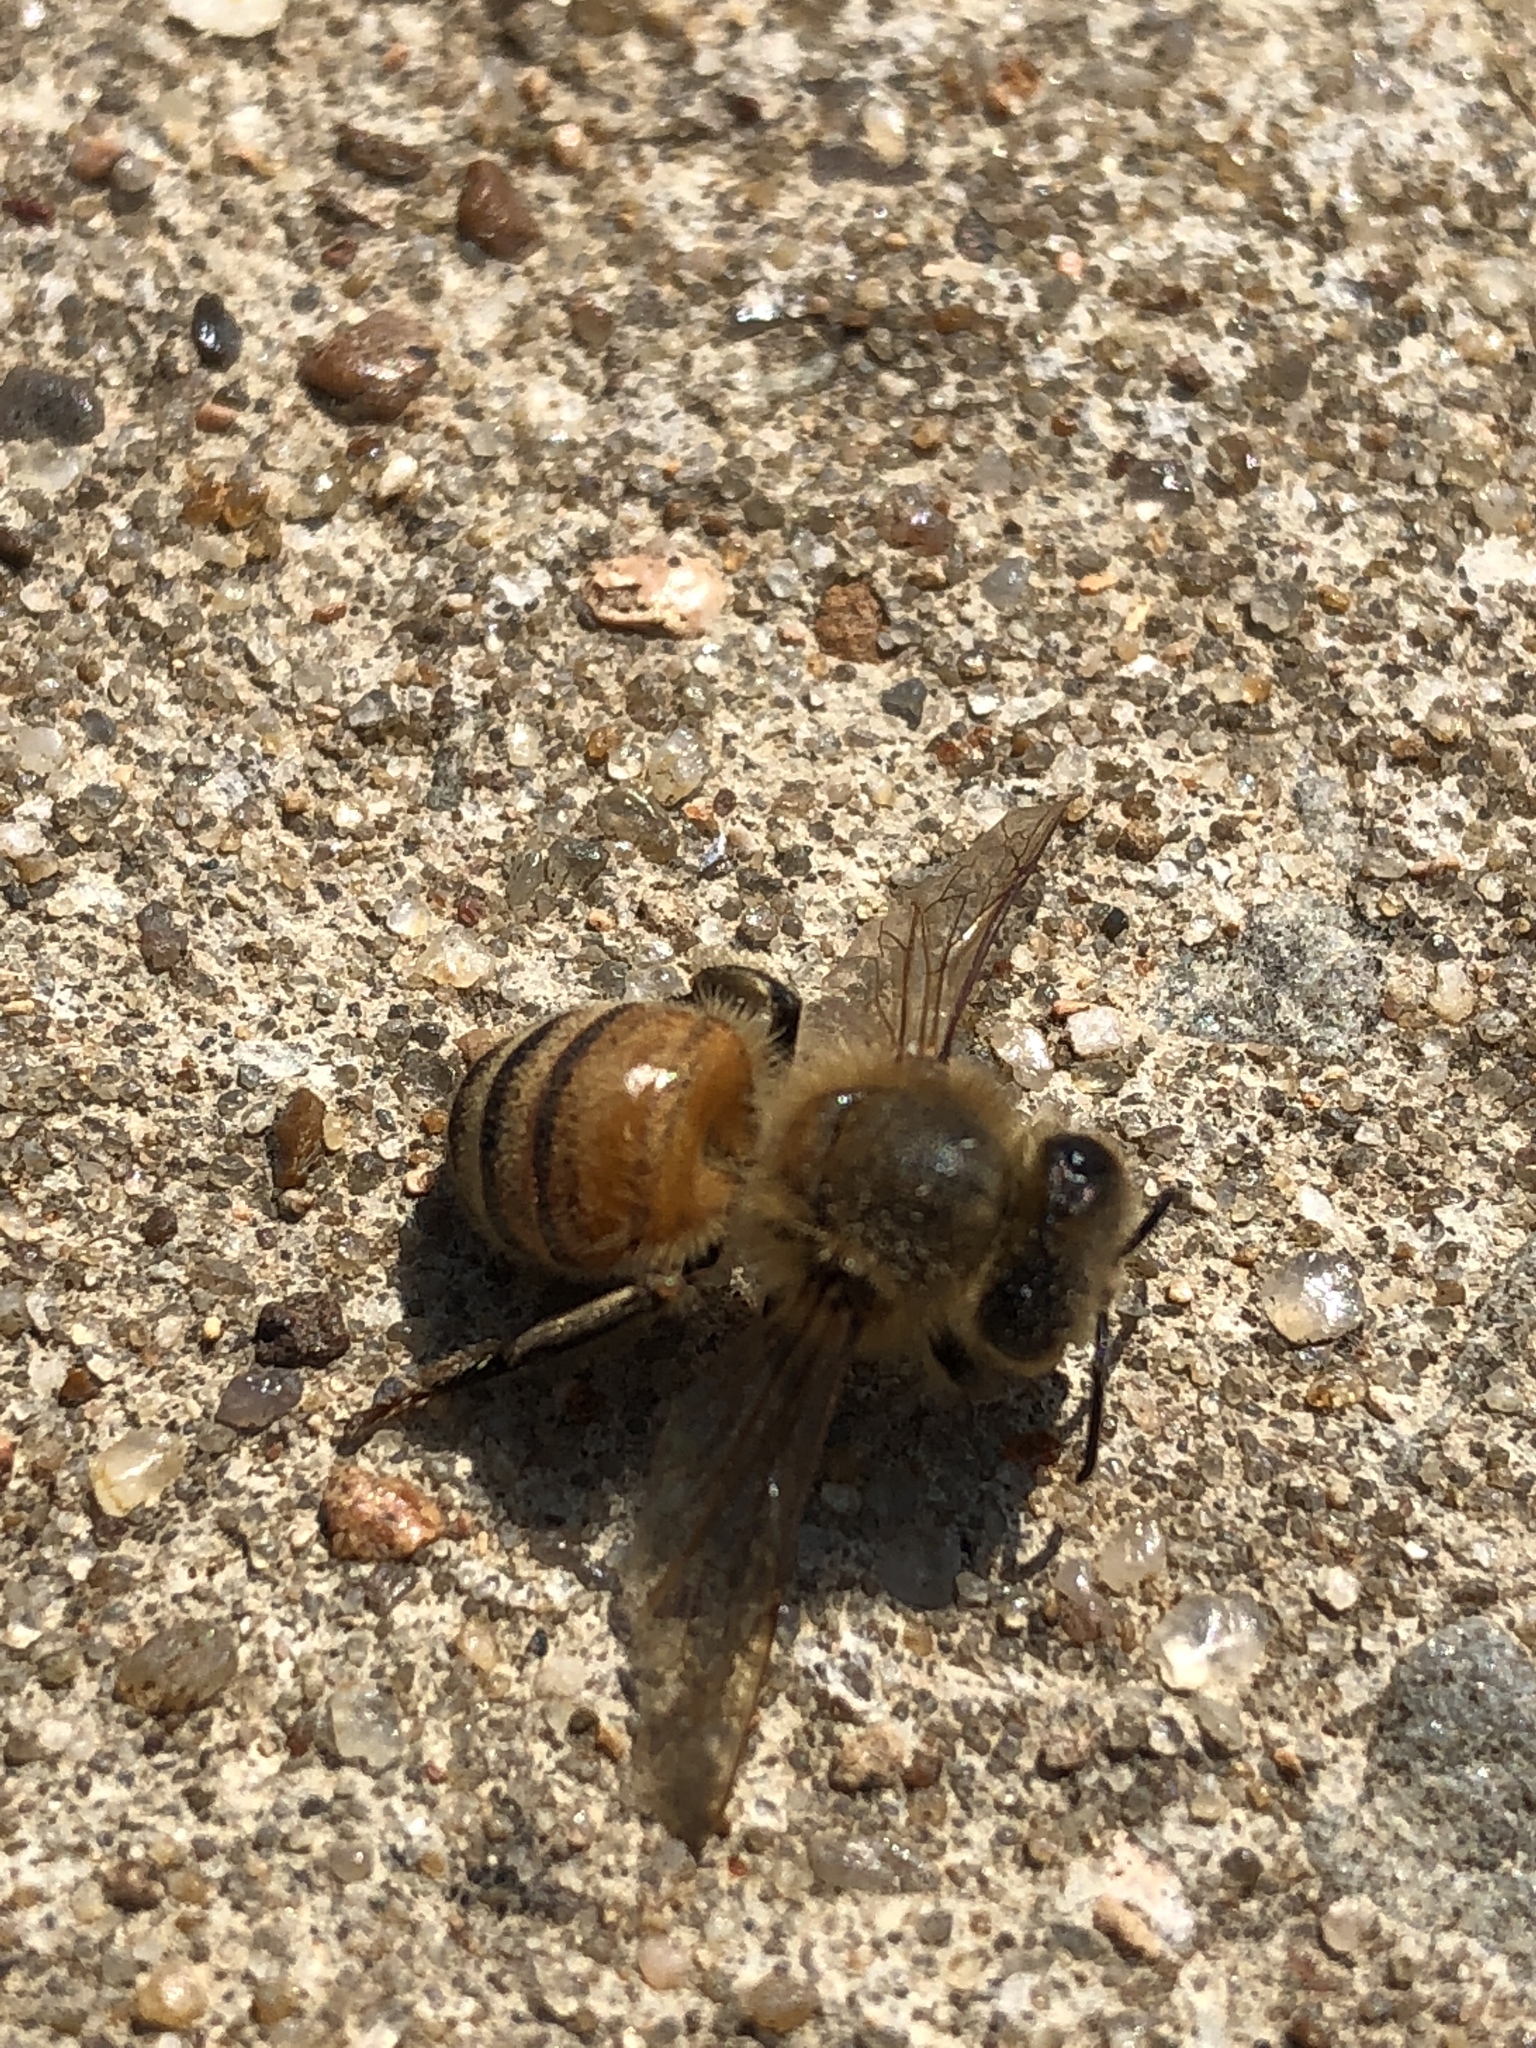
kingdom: Animalia
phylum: Arthropoda
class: Insecta
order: Hymenoptera
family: Apidae
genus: Apis
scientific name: Apis mellifera
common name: Honey bee
